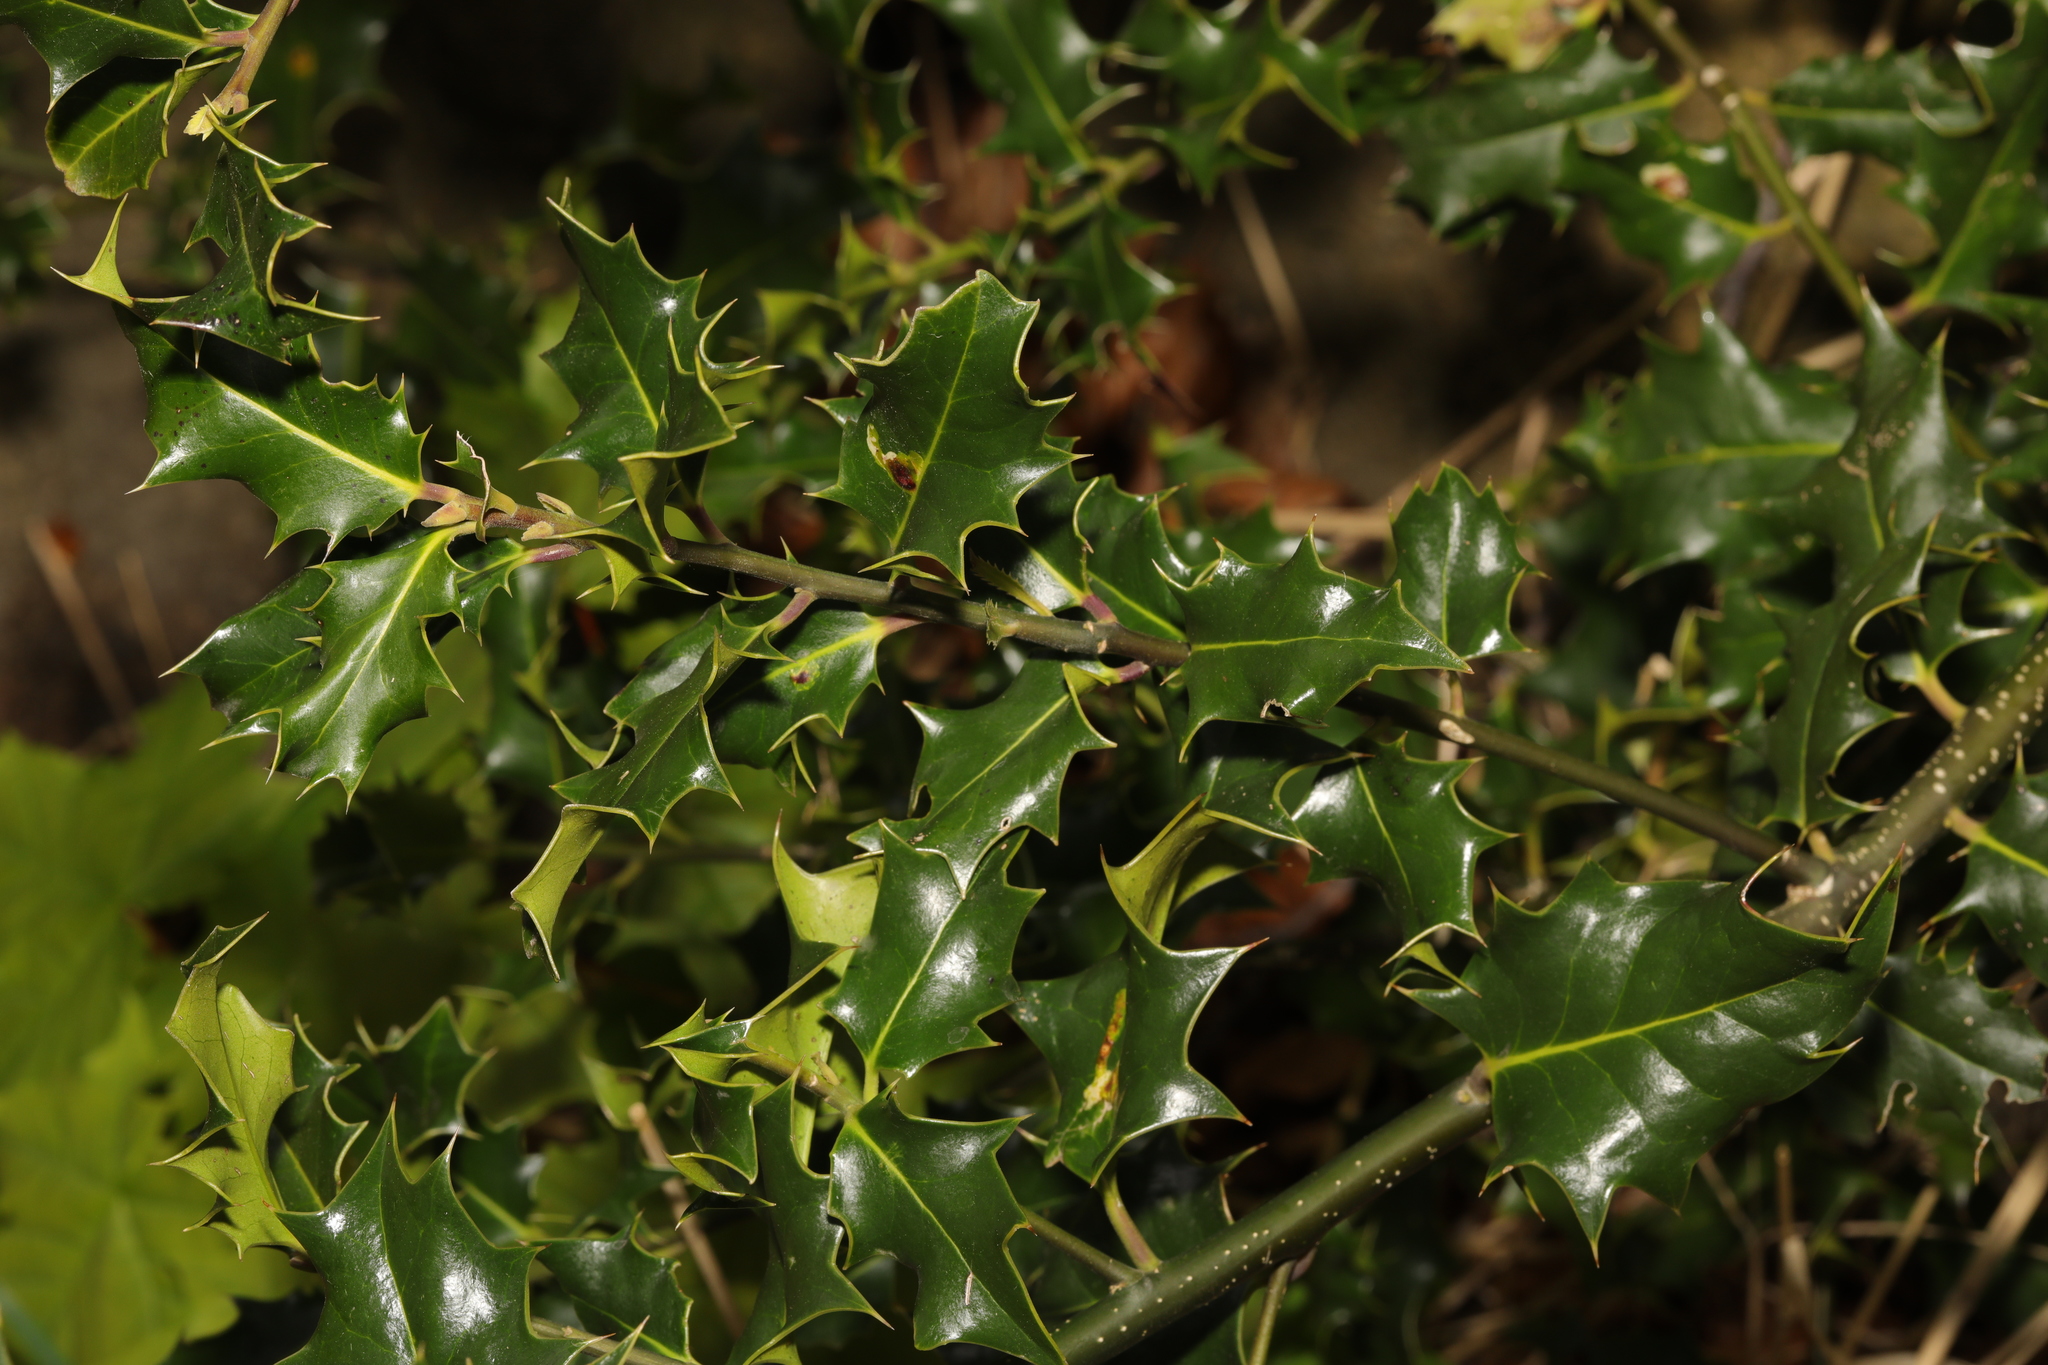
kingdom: Plantae
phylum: Tracheophyta
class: Magnoliopsida
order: Aquifoliales
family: Aquifoliaceae
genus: Ilex
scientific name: Ilex aquifolium
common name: English holly
